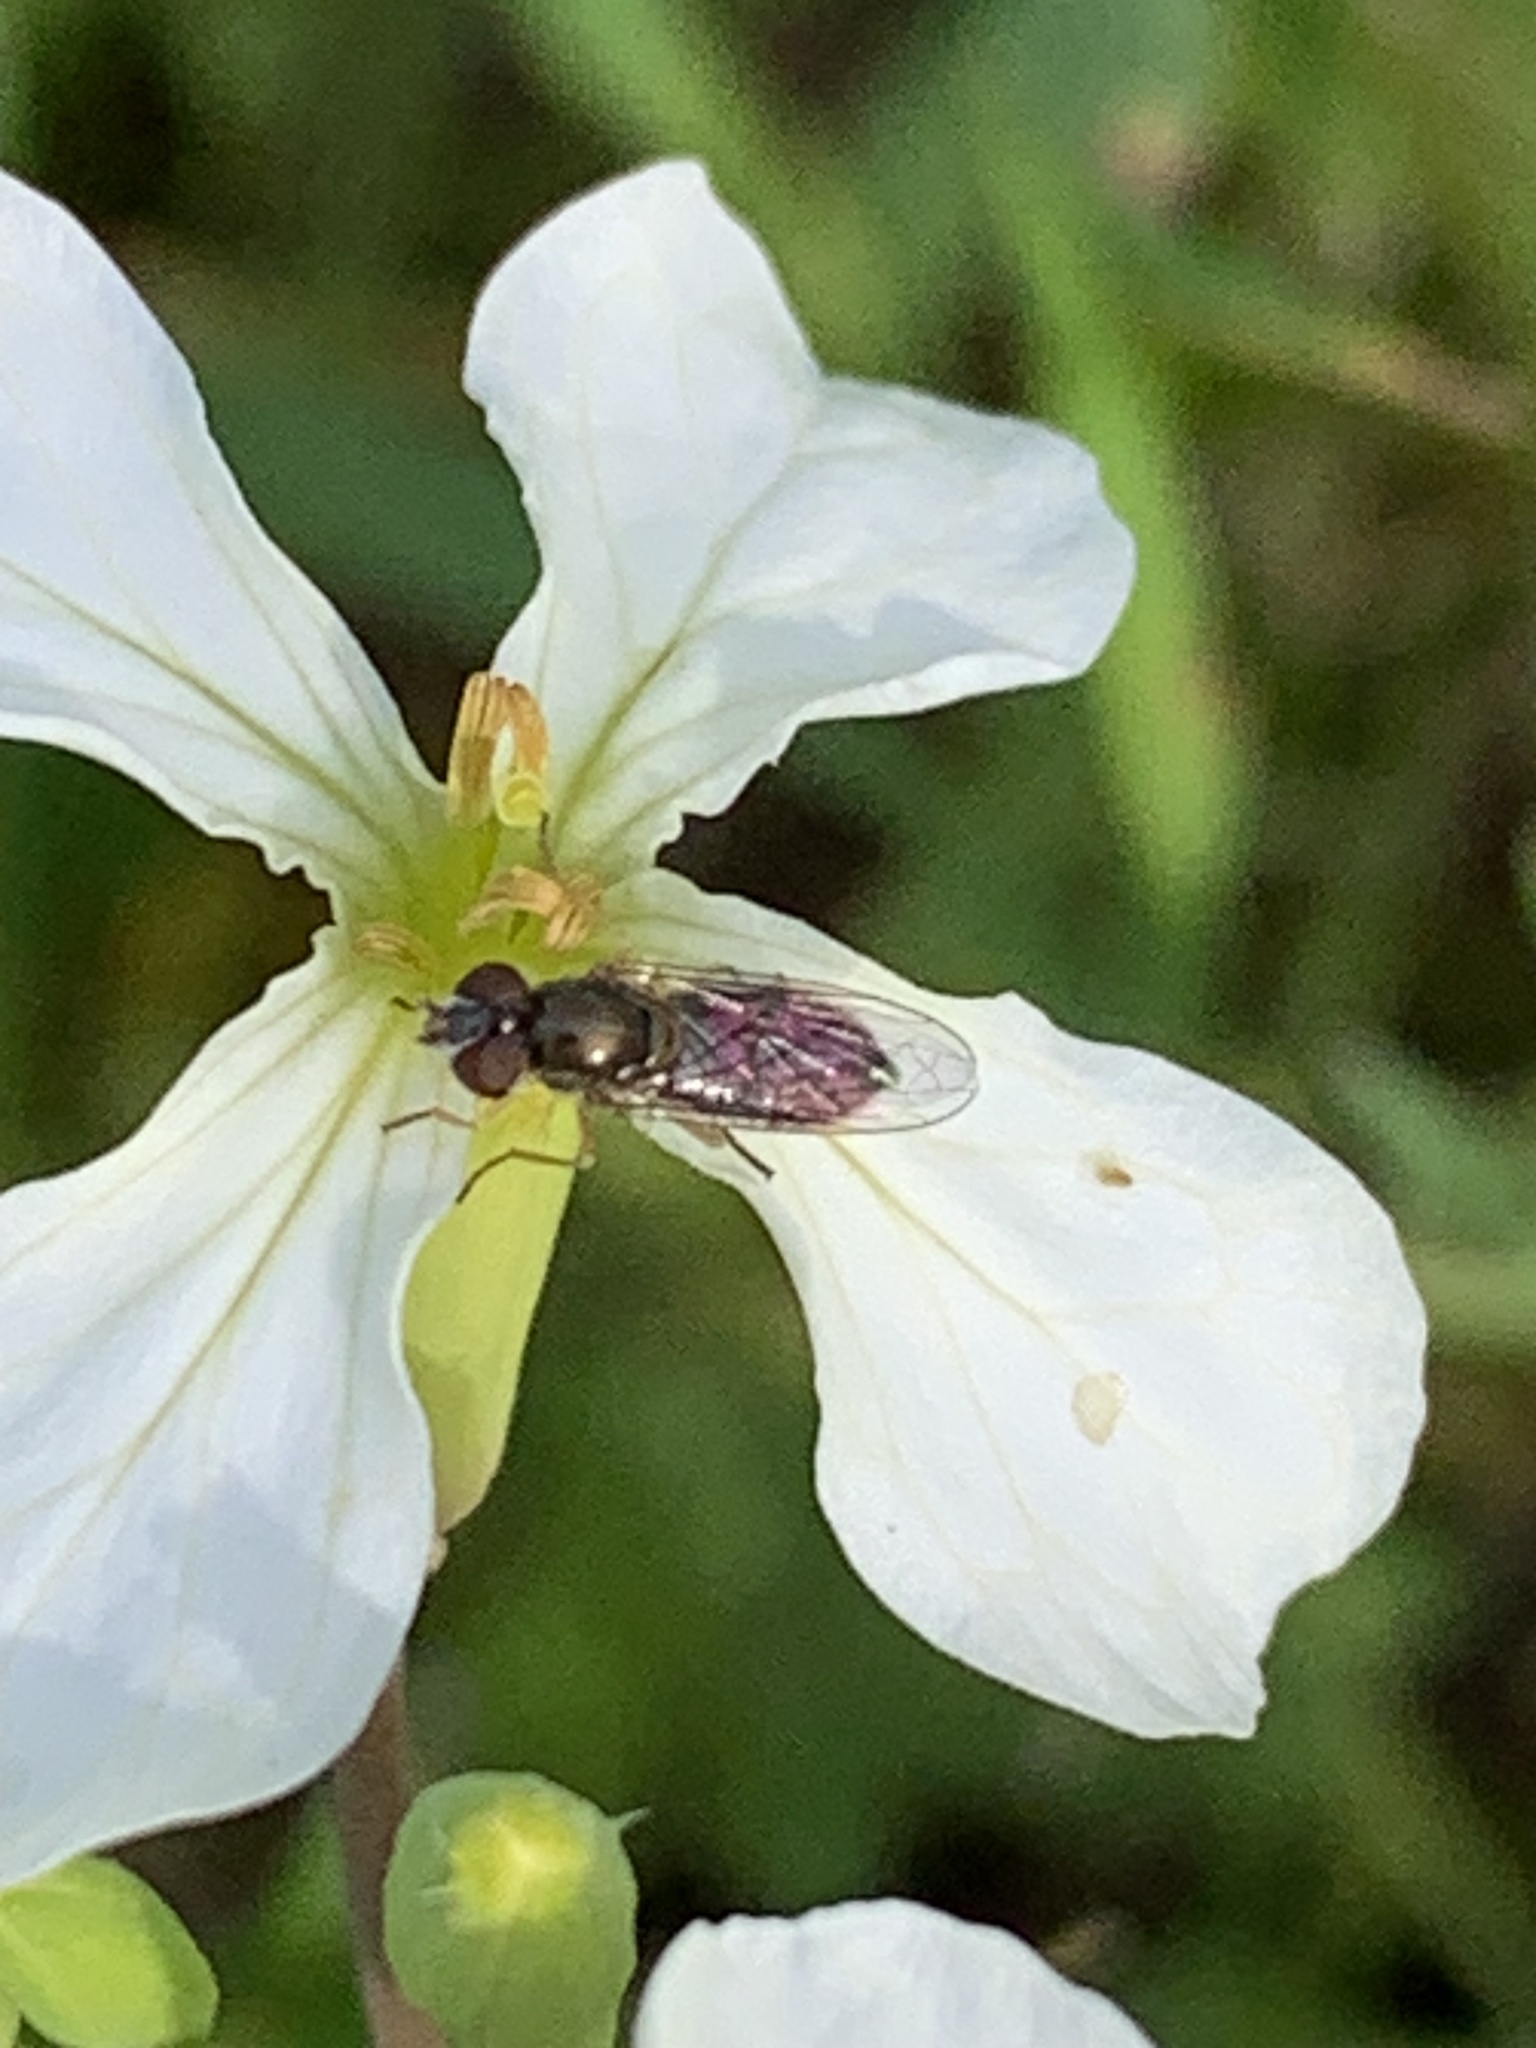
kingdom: Animalia
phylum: Arthropoda
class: Insecta
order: Diptera
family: Syrphidae
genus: Toxomerus
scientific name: Toxomerus marginatus
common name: Syrphid fly
